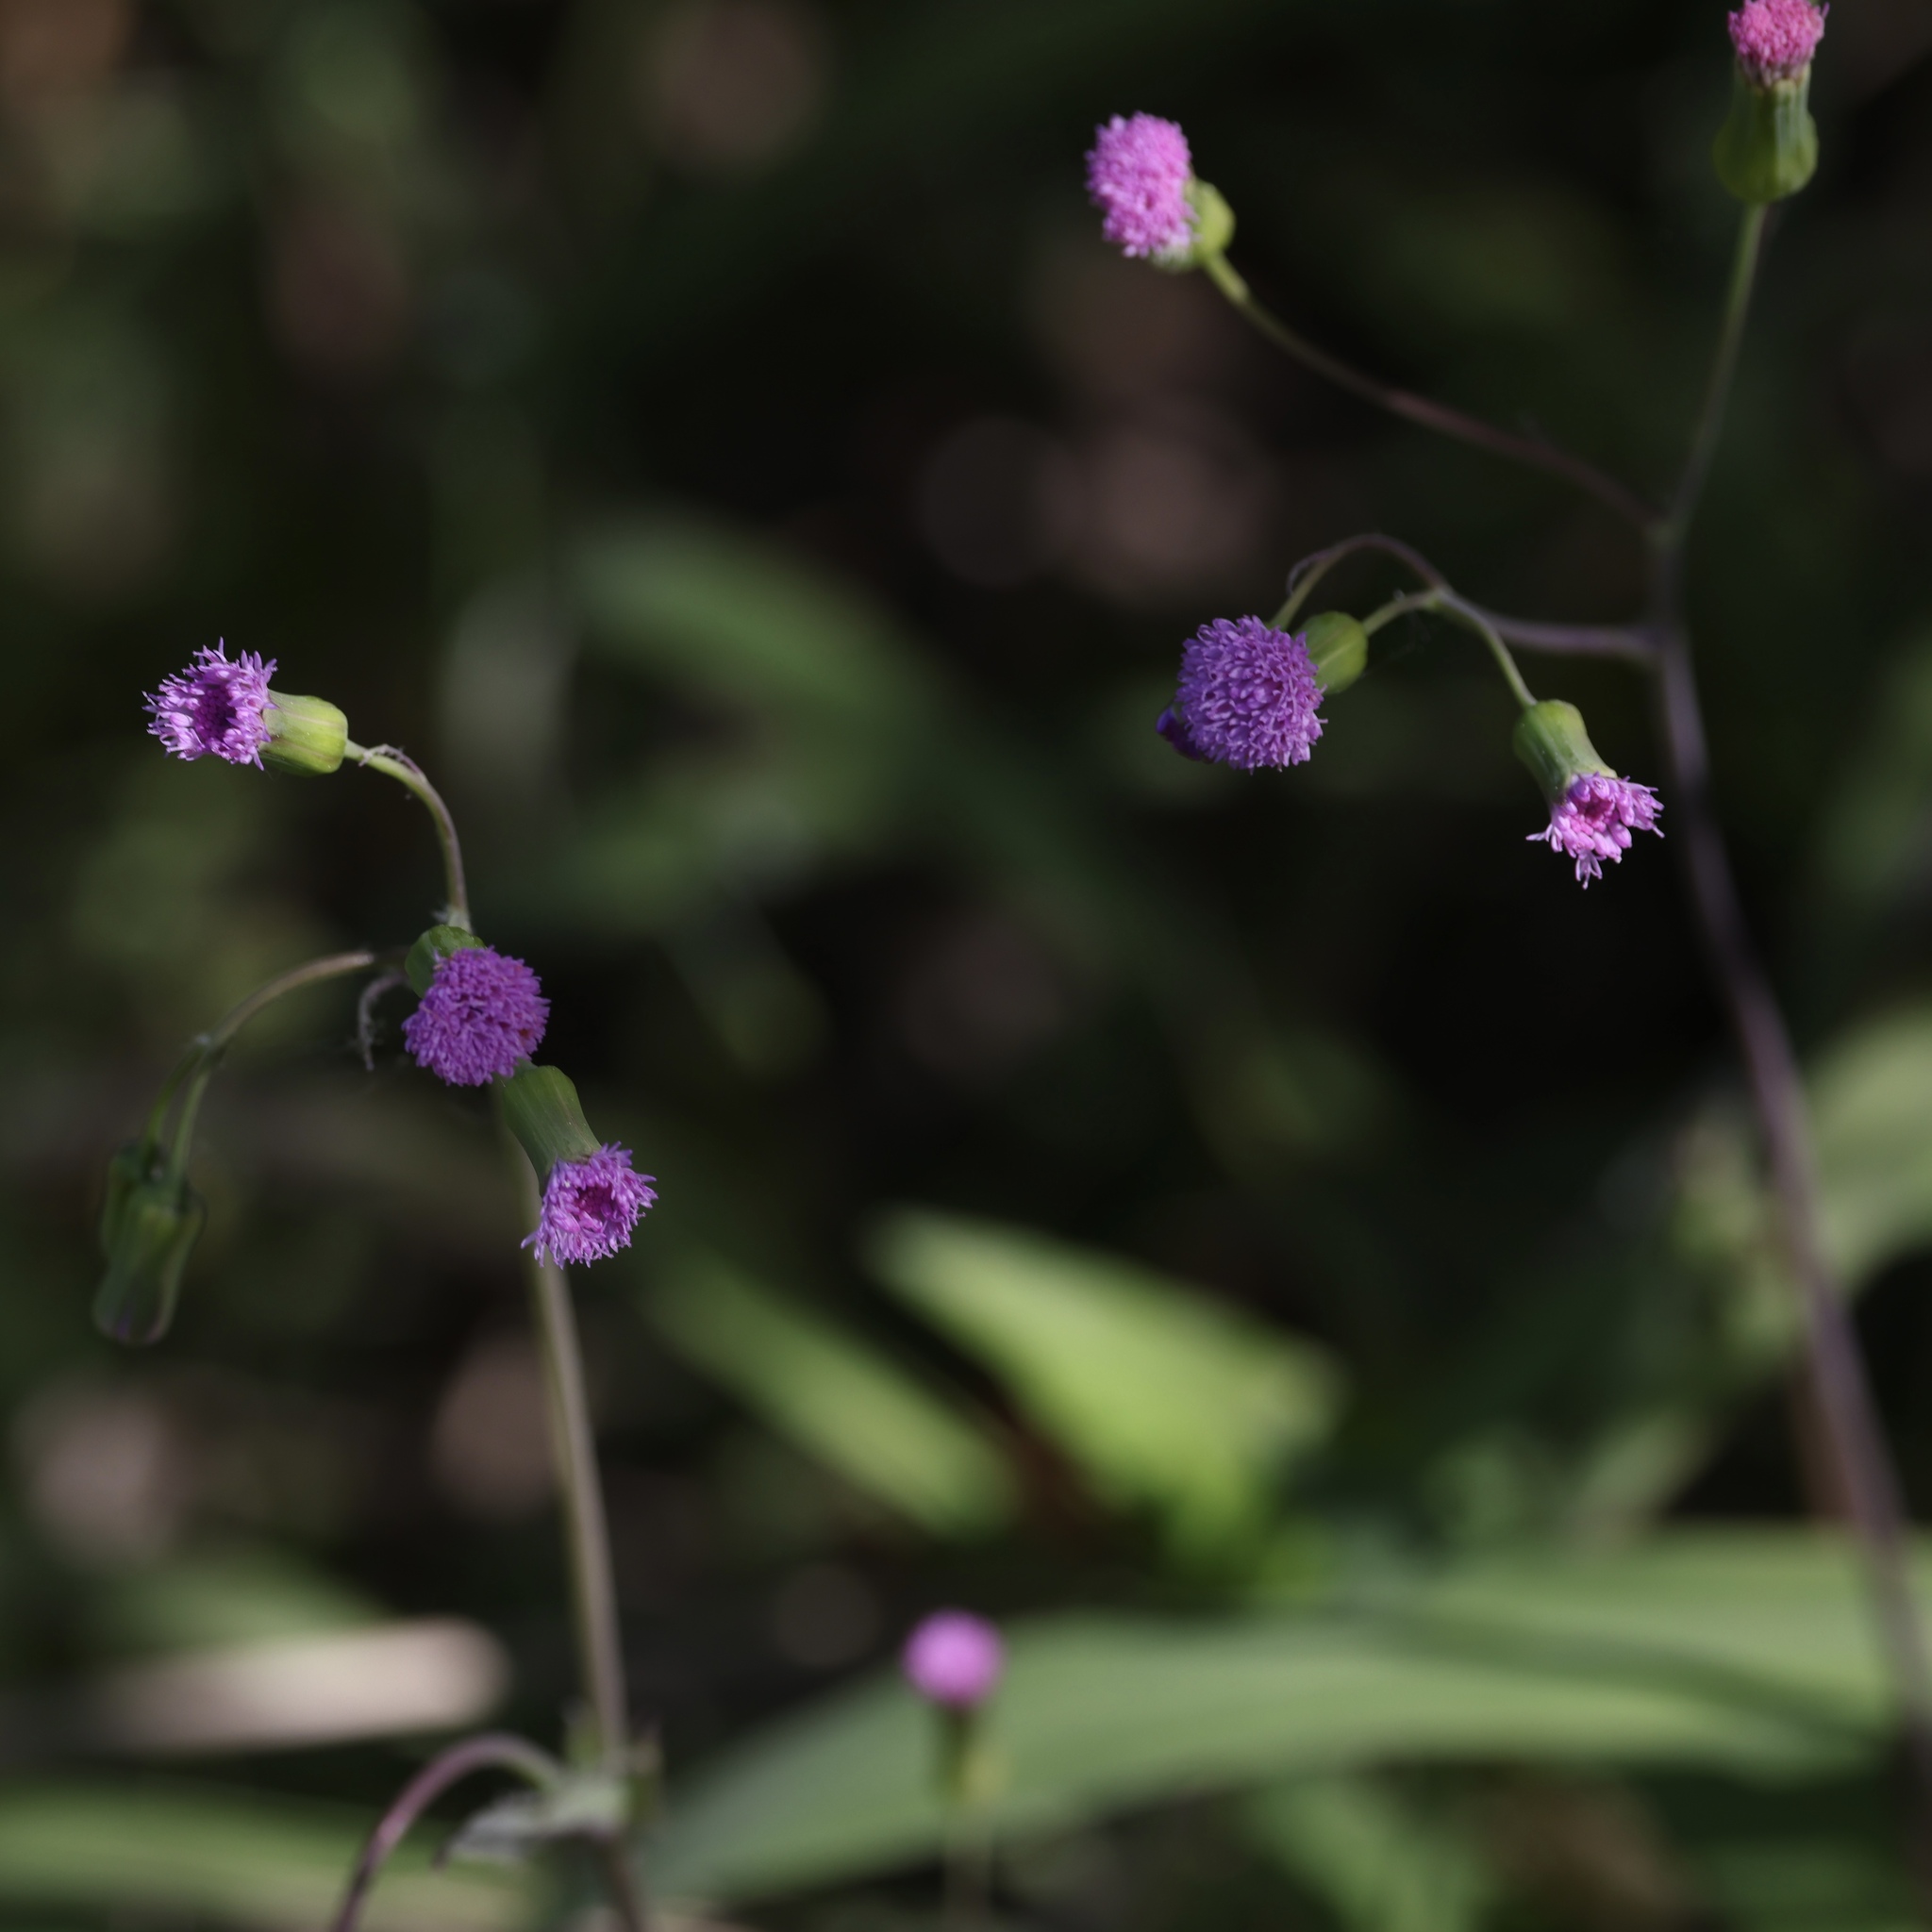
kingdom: Plantae
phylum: Tracheophyta
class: Magnoliopsida
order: Asterales
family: Asteraceae
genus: Emilia
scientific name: Emilia sonchifolia
